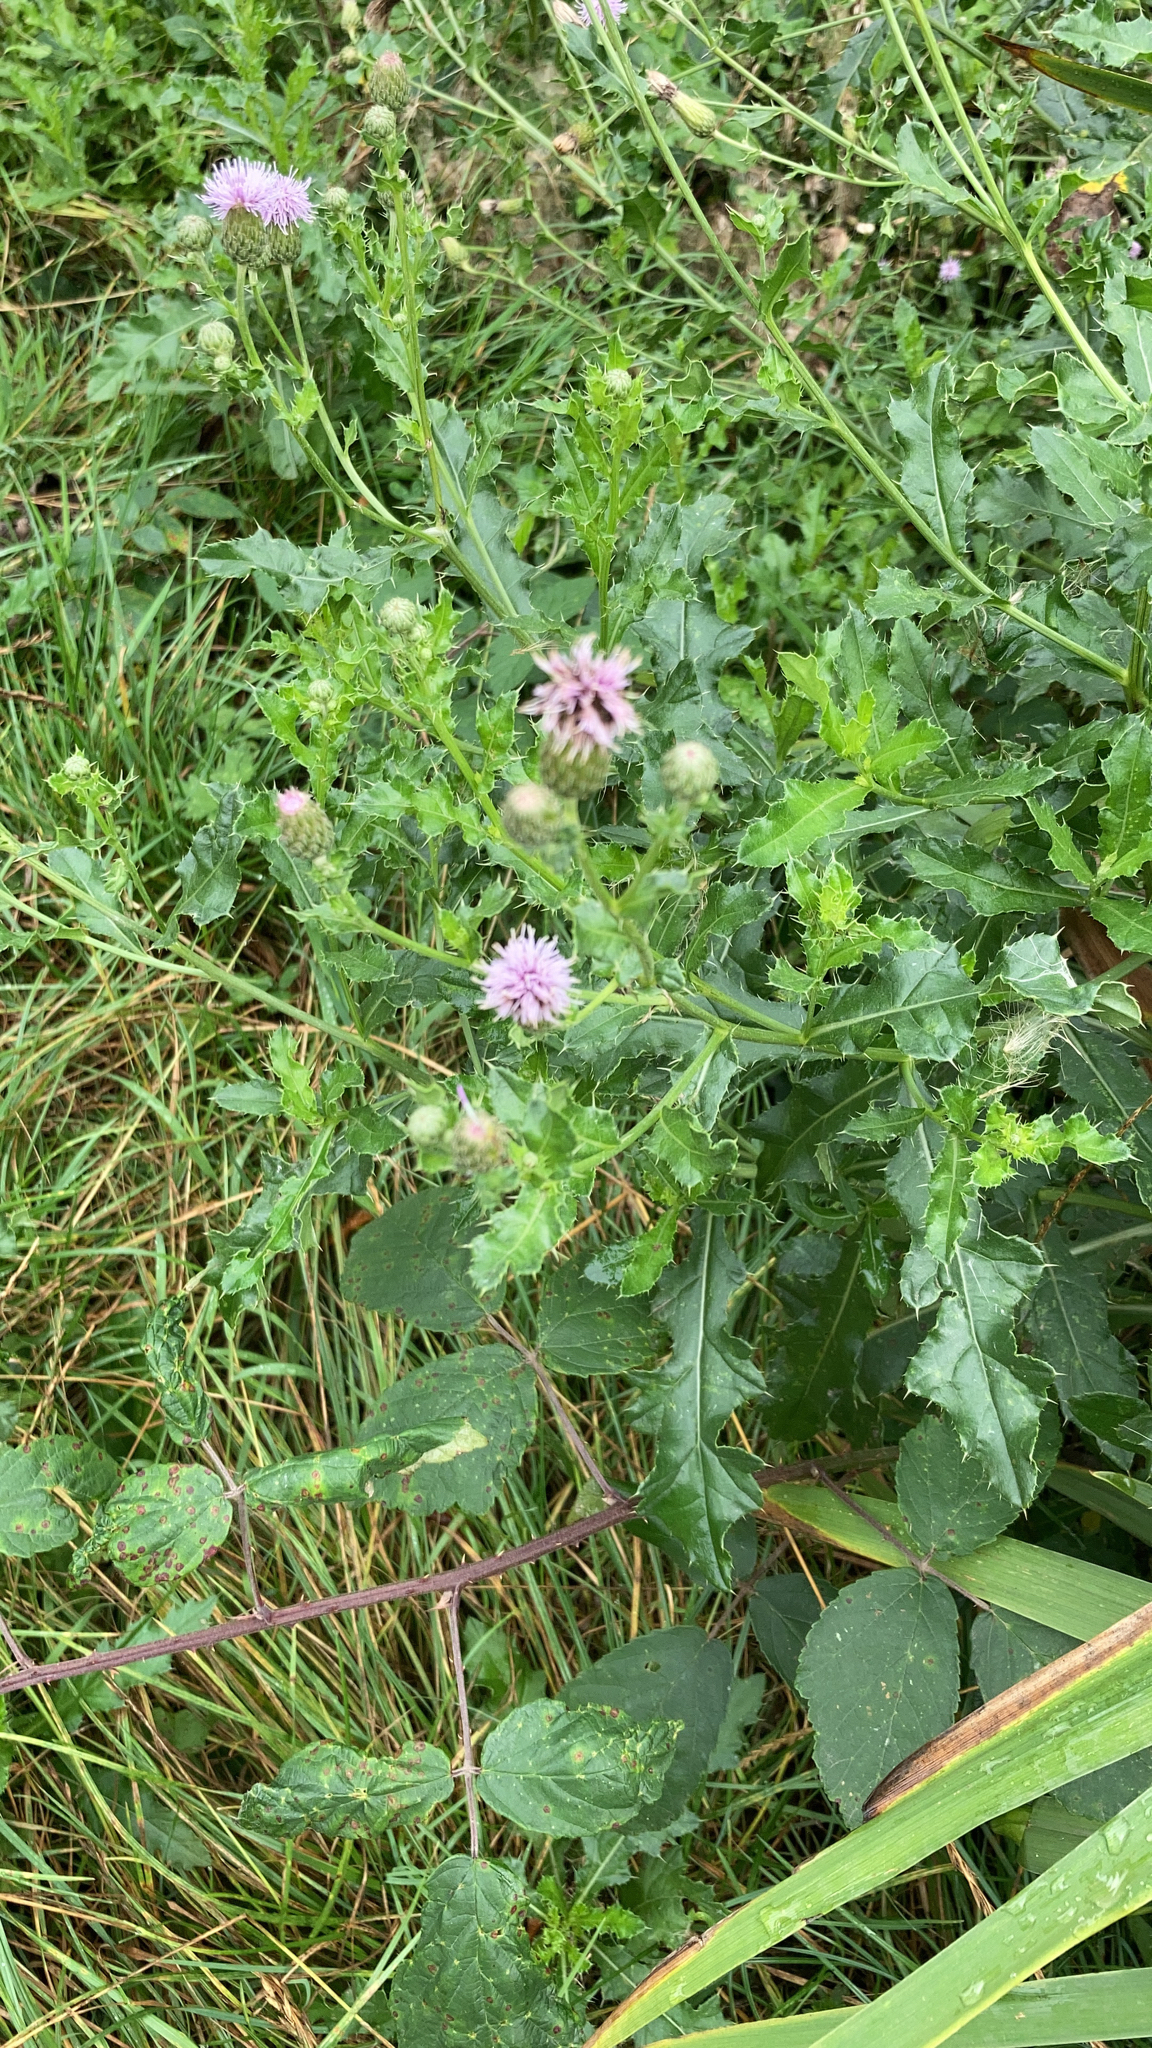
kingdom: Plantae
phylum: Tracheophyta
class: Magnoliopsida
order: Asterales
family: Asteraceae
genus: Cirsium
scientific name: Cirsium arvense
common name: Creeping thistle
